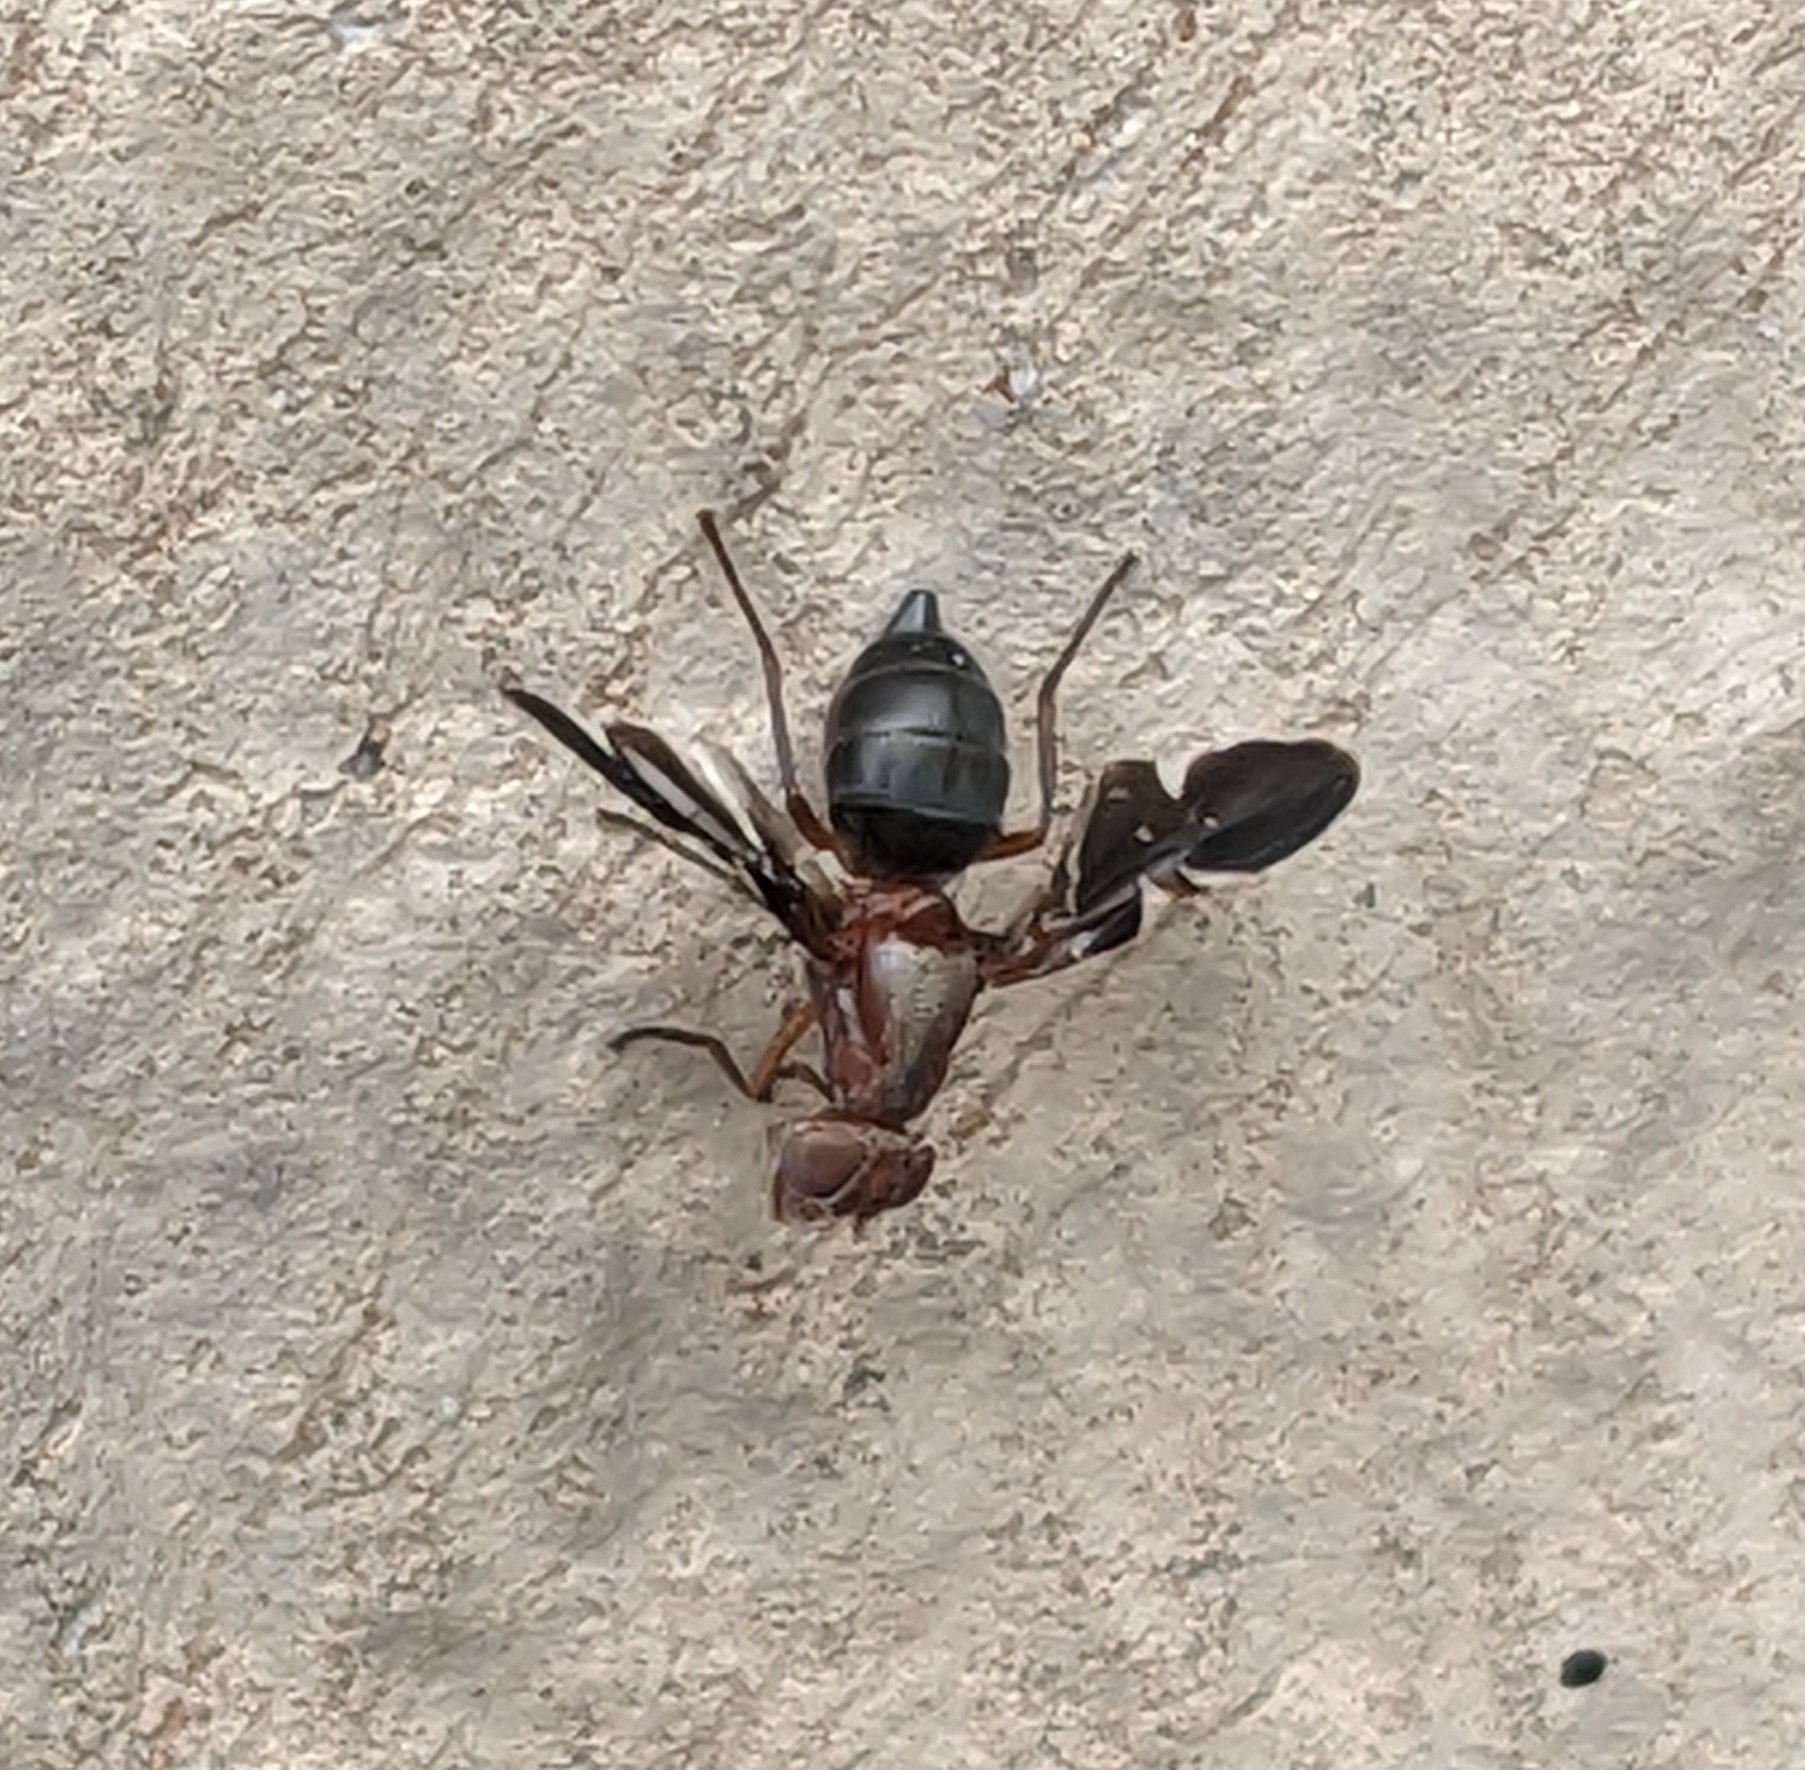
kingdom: Animalia
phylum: Arthropoda
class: Insecta
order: Diptera
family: Ulidiidae
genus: Delphinia
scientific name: Delphinia picta
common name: Common picture-winged fly
